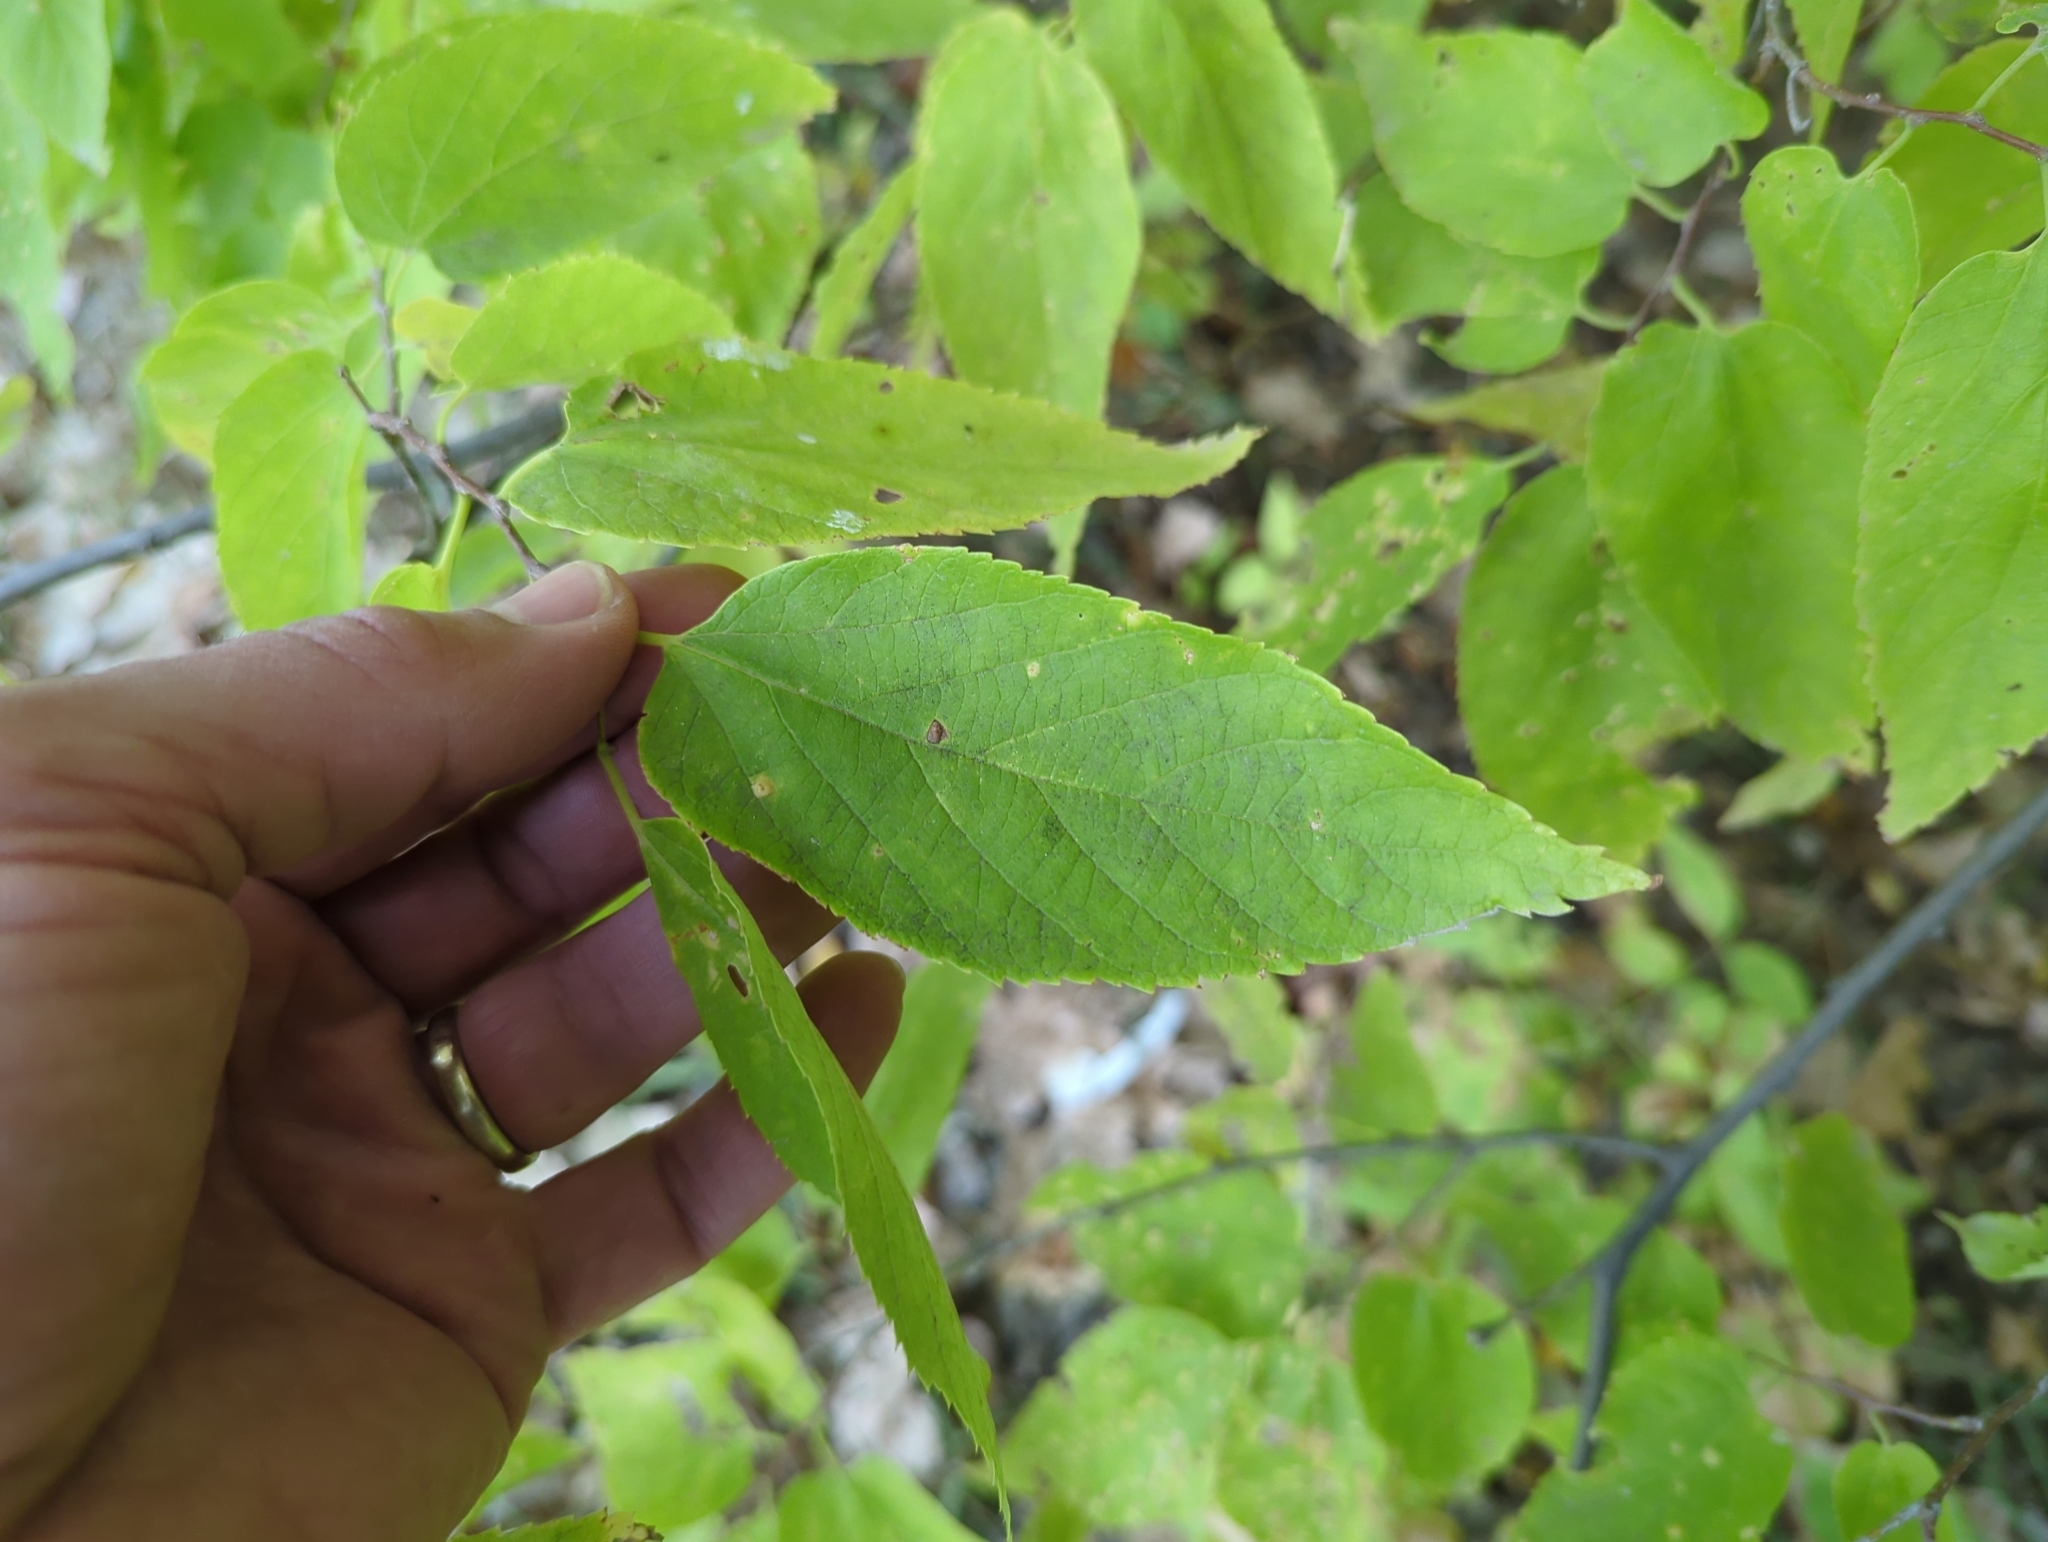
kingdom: Plantae
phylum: Tracheophyta
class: Magnoliopsida
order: Rosales
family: Cannabaceae
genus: Celtis
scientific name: Celtis occidentalis
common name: Common hackberry
